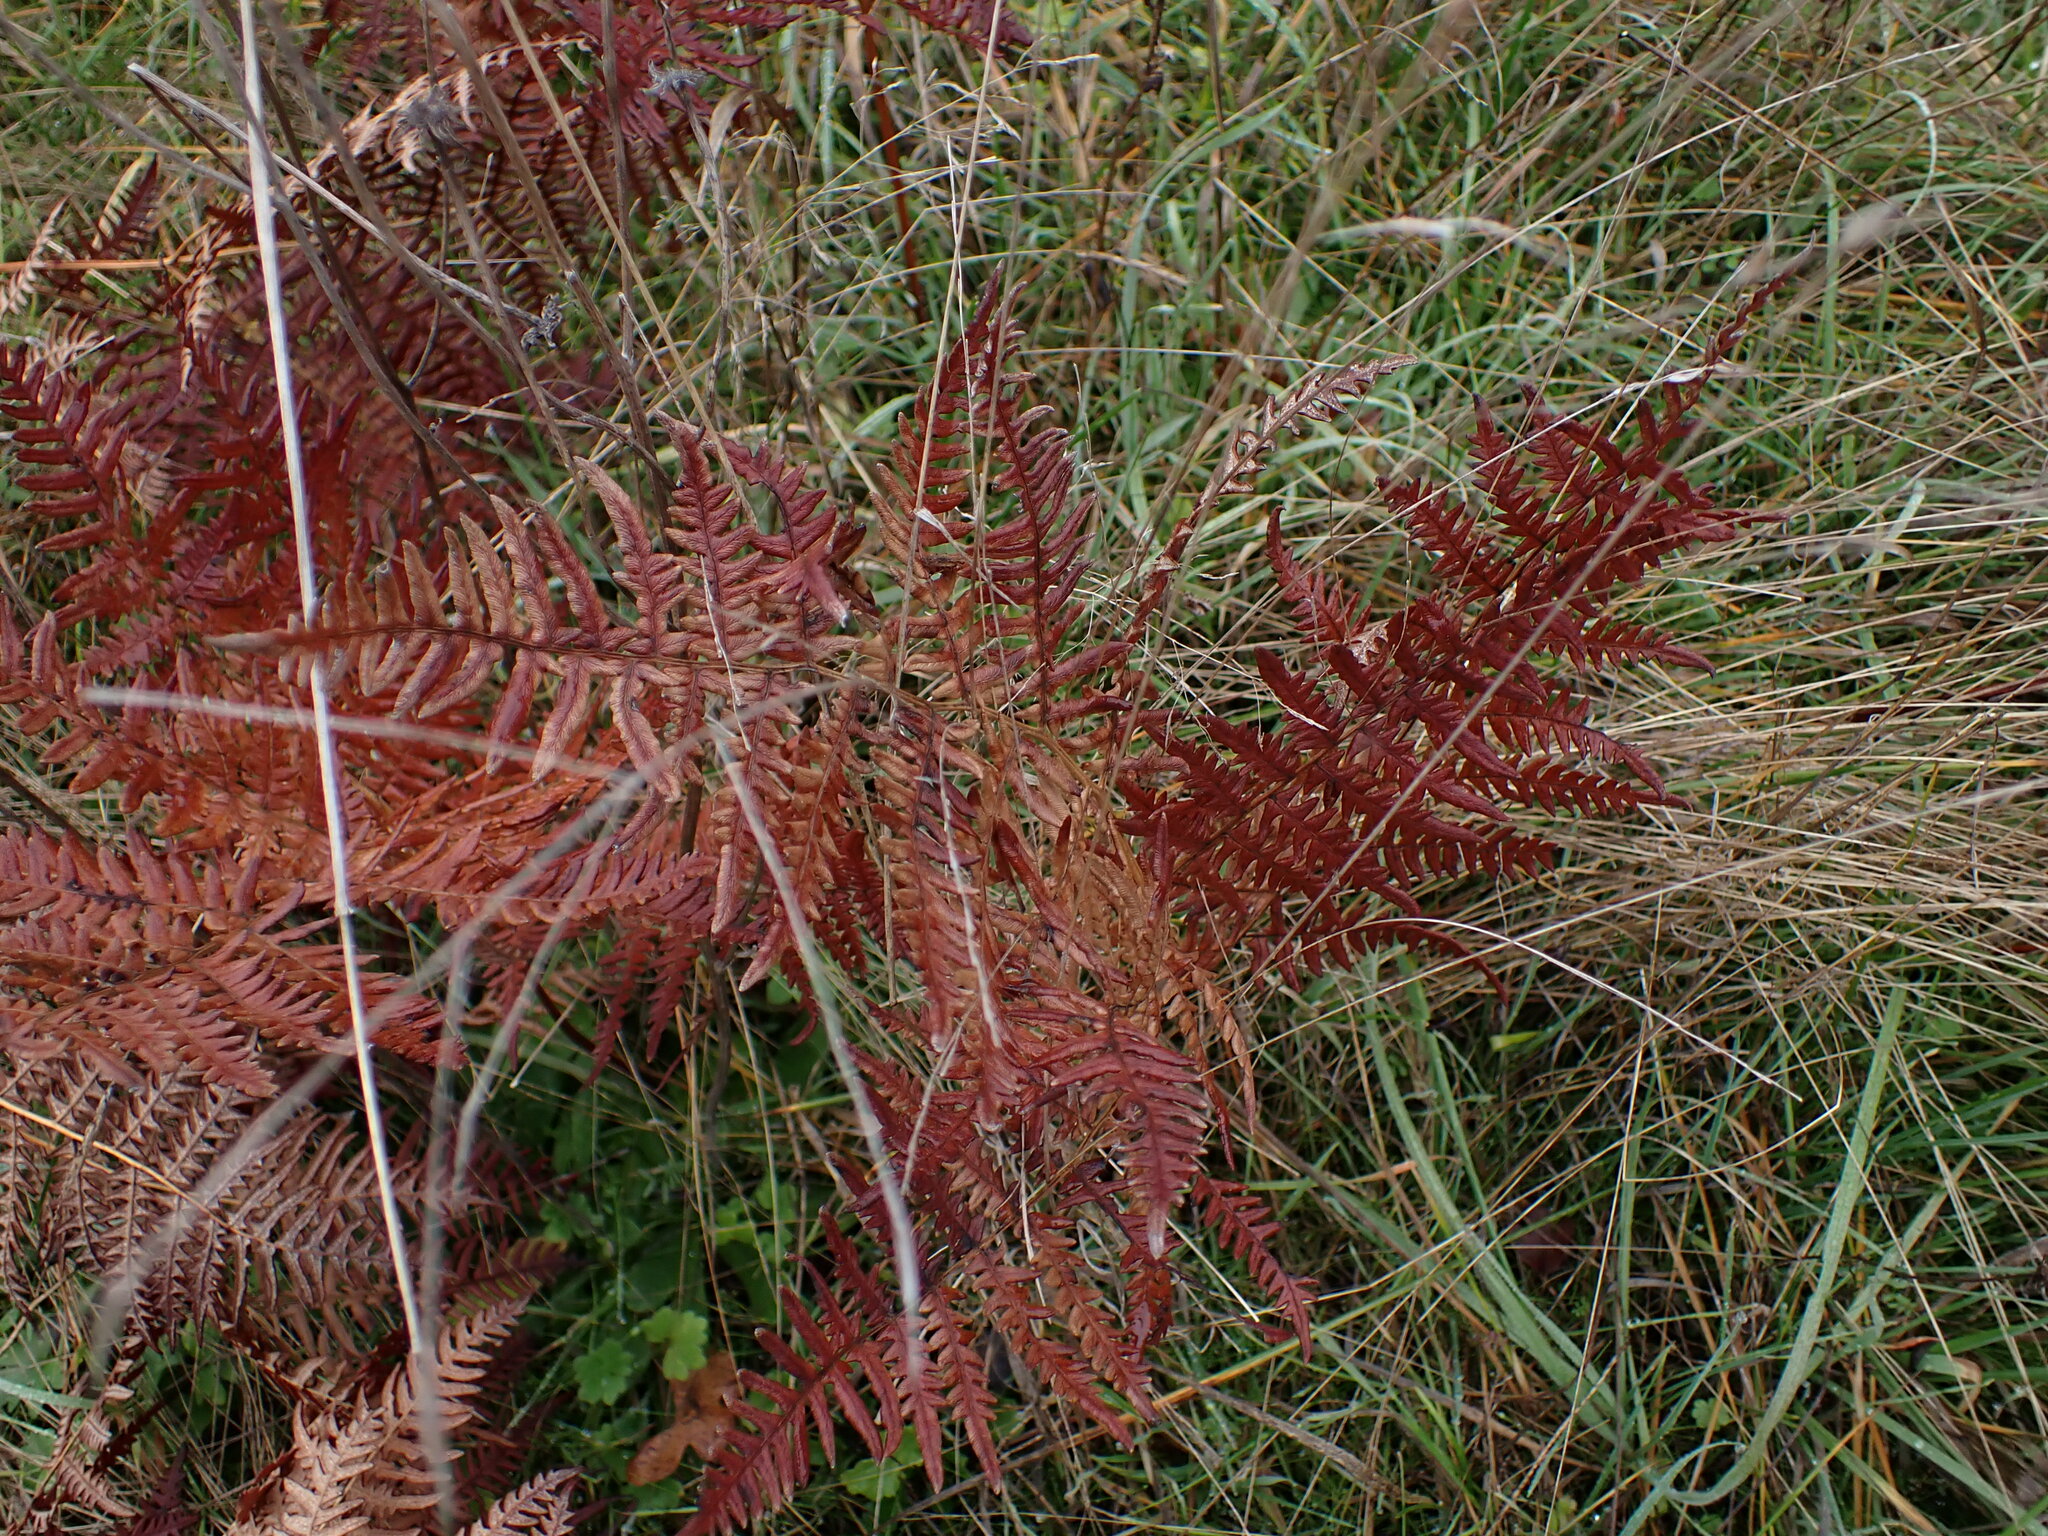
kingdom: Plantae
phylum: Tracheophyta
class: Polypodiopsida
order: Polypodiales
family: Dennstaedtiaceae
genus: Pteridium
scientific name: Pteridium aquilinum
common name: Bracken
